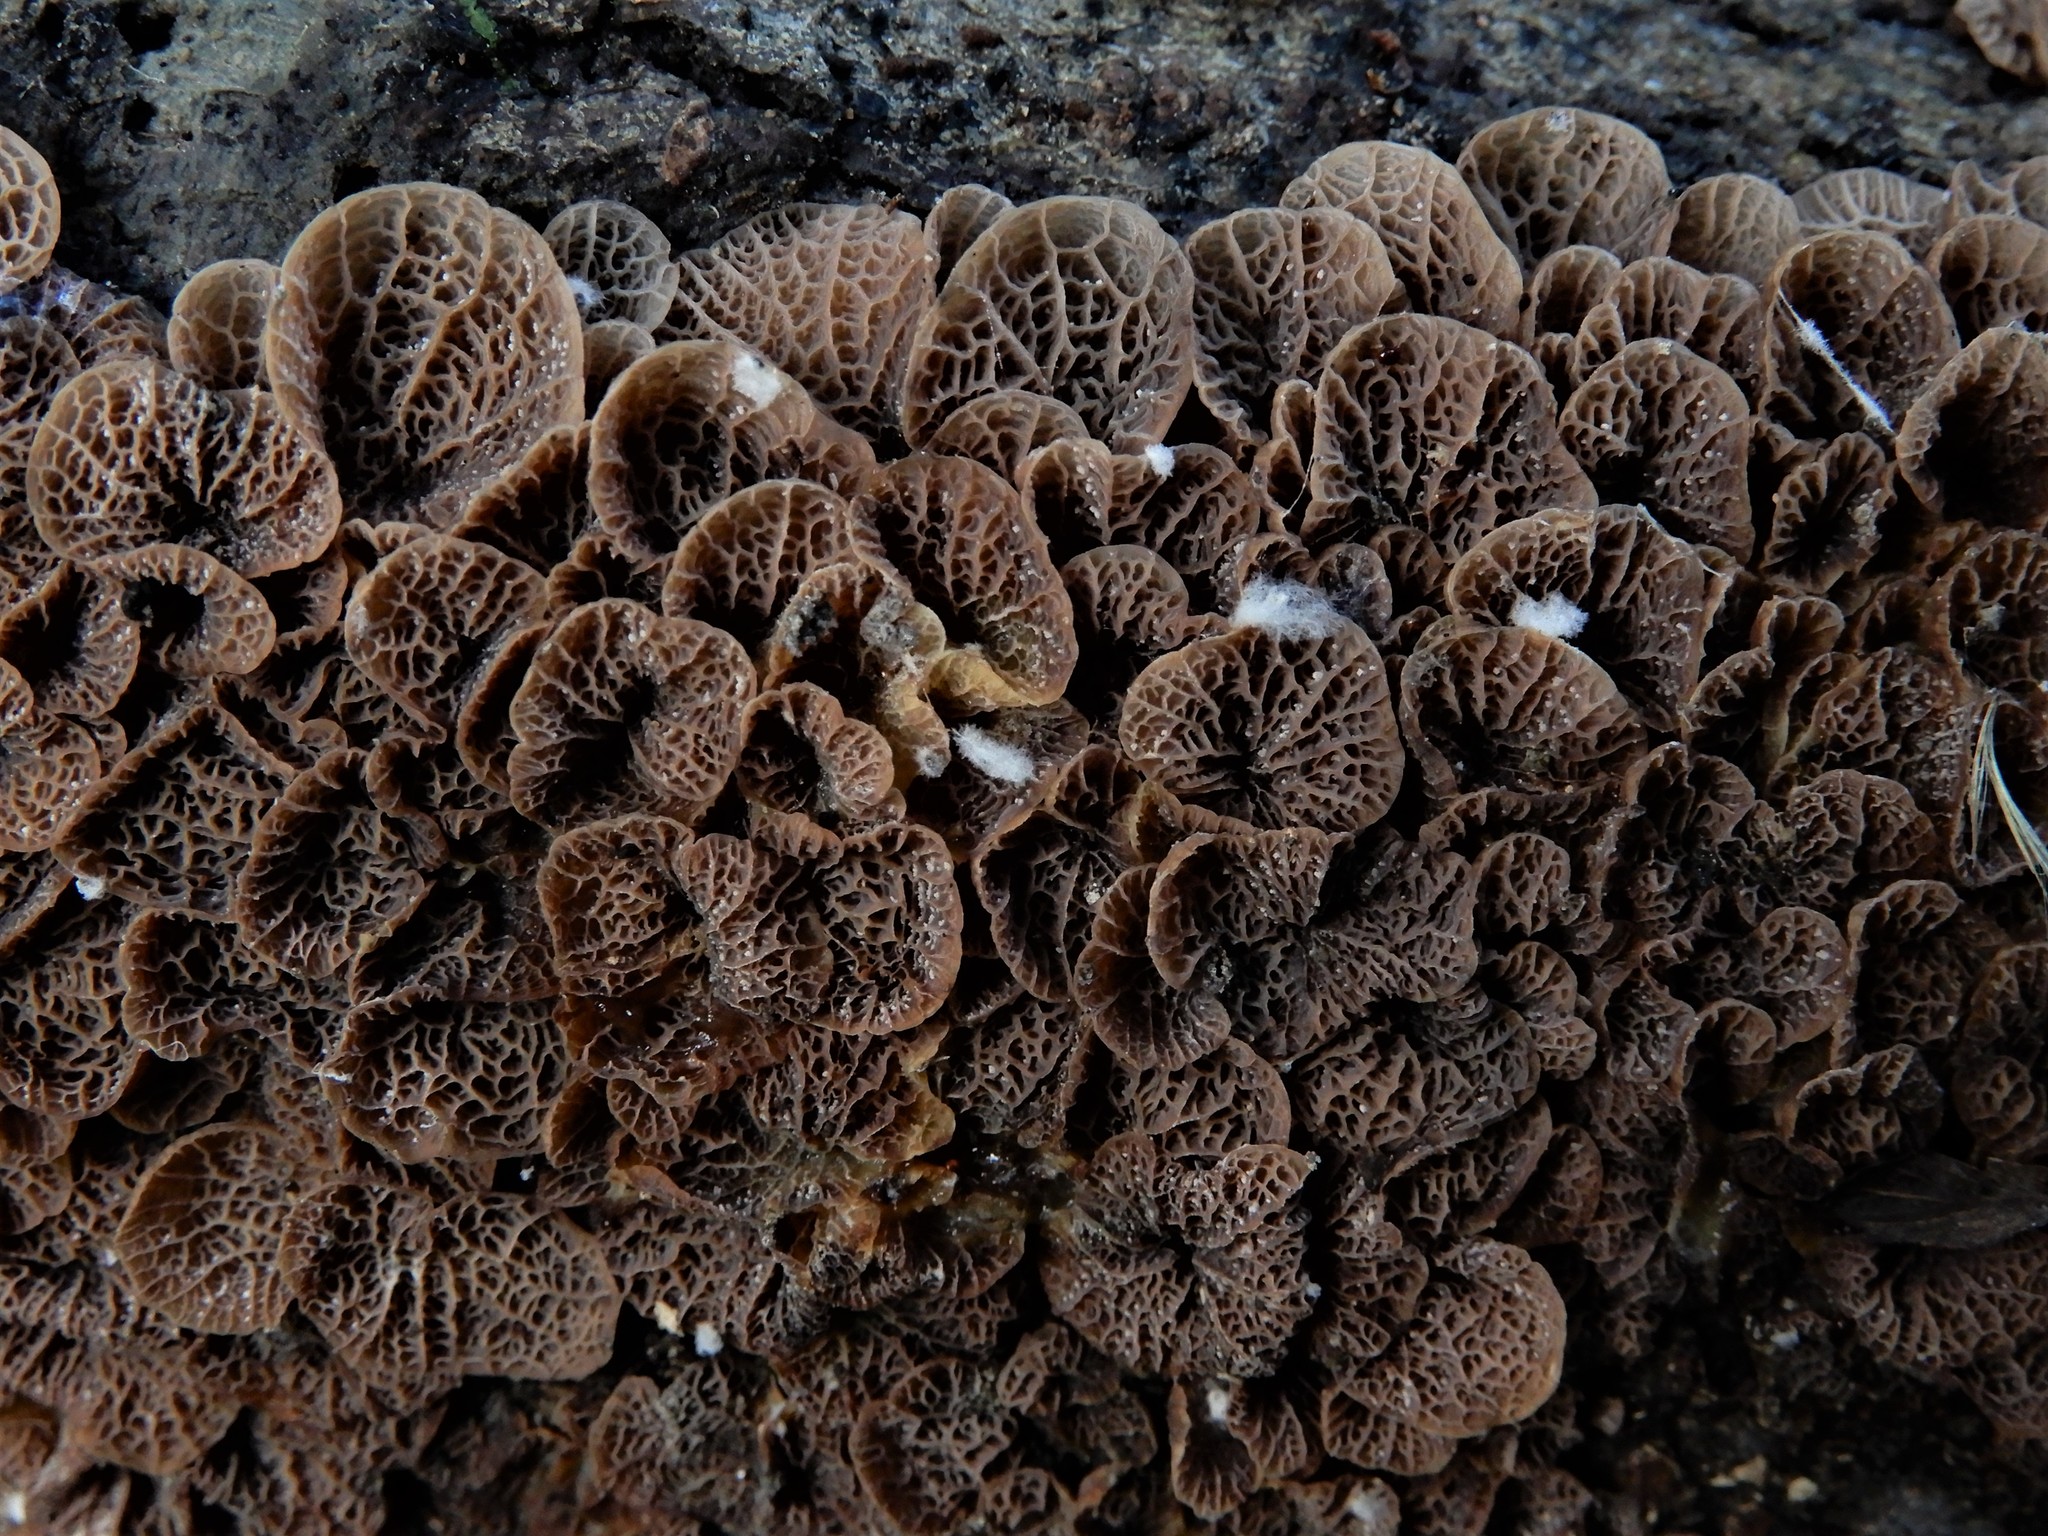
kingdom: Fungi
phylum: Basidiomycota
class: Agaricomycetes
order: Agaricales
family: Pleurotaceae
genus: Resupinatus
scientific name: Resupinatus merulioides
